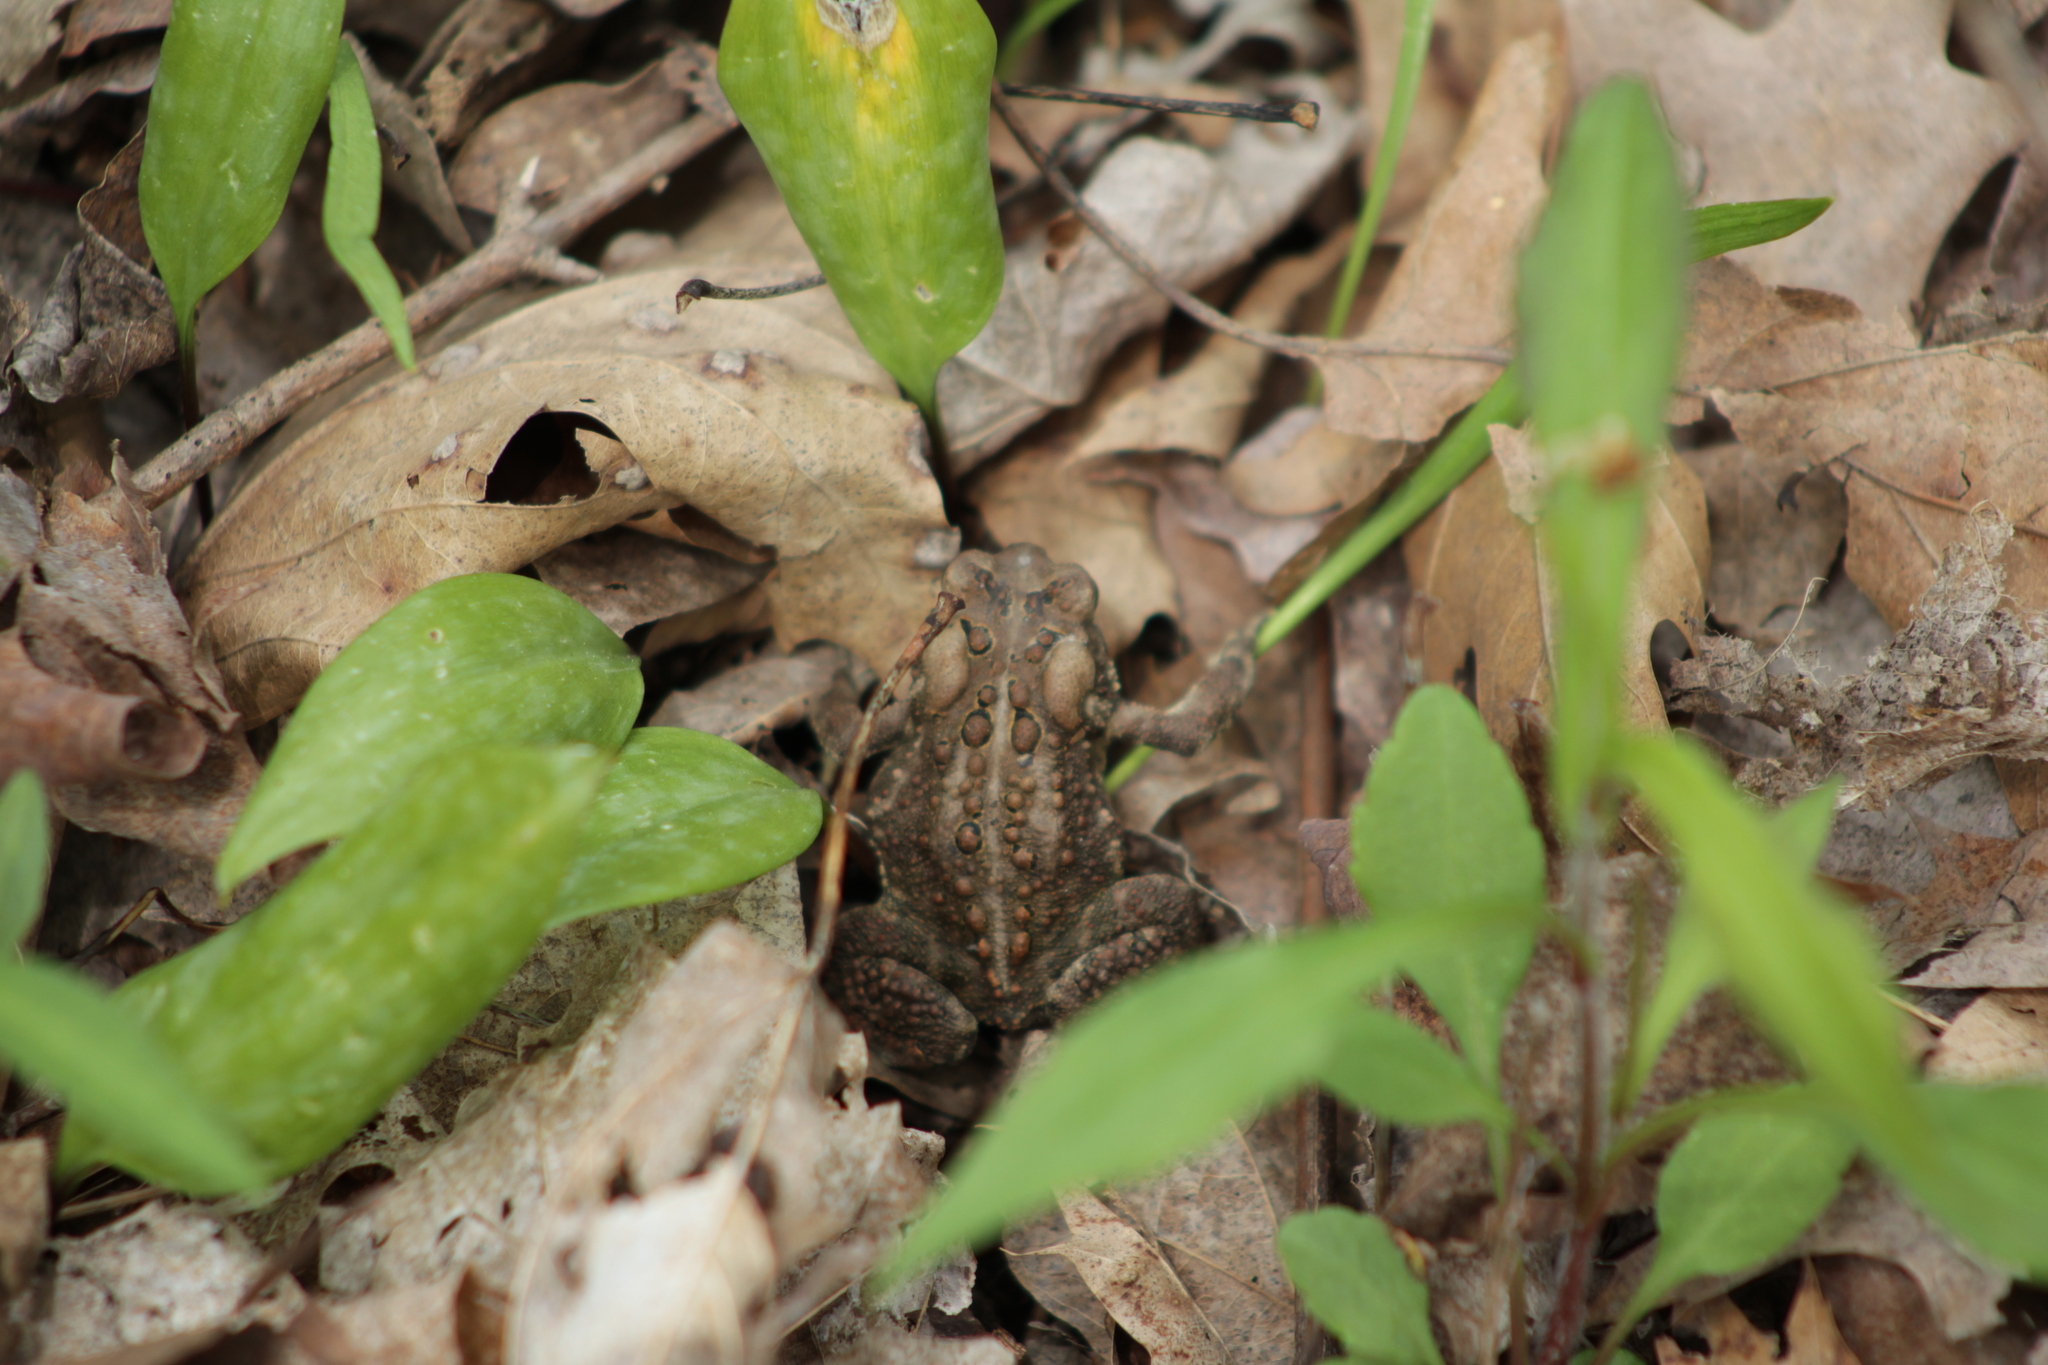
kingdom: Animalia
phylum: Chordata
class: Amphibia
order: Anura
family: Bufonidae
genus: Anaxyrus
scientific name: Anaxyrus americanus
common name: American toad
